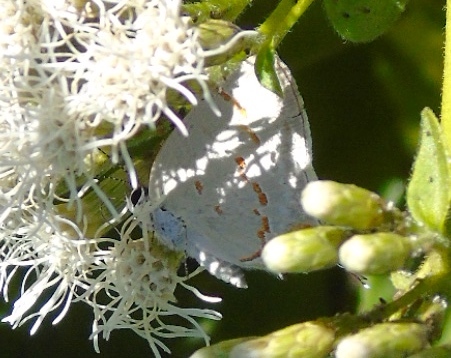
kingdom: Animalia
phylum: Arthropoda
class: Insecta
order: Lepidoptera
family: Lycaenidae
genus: Strymon
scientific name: Strymon
